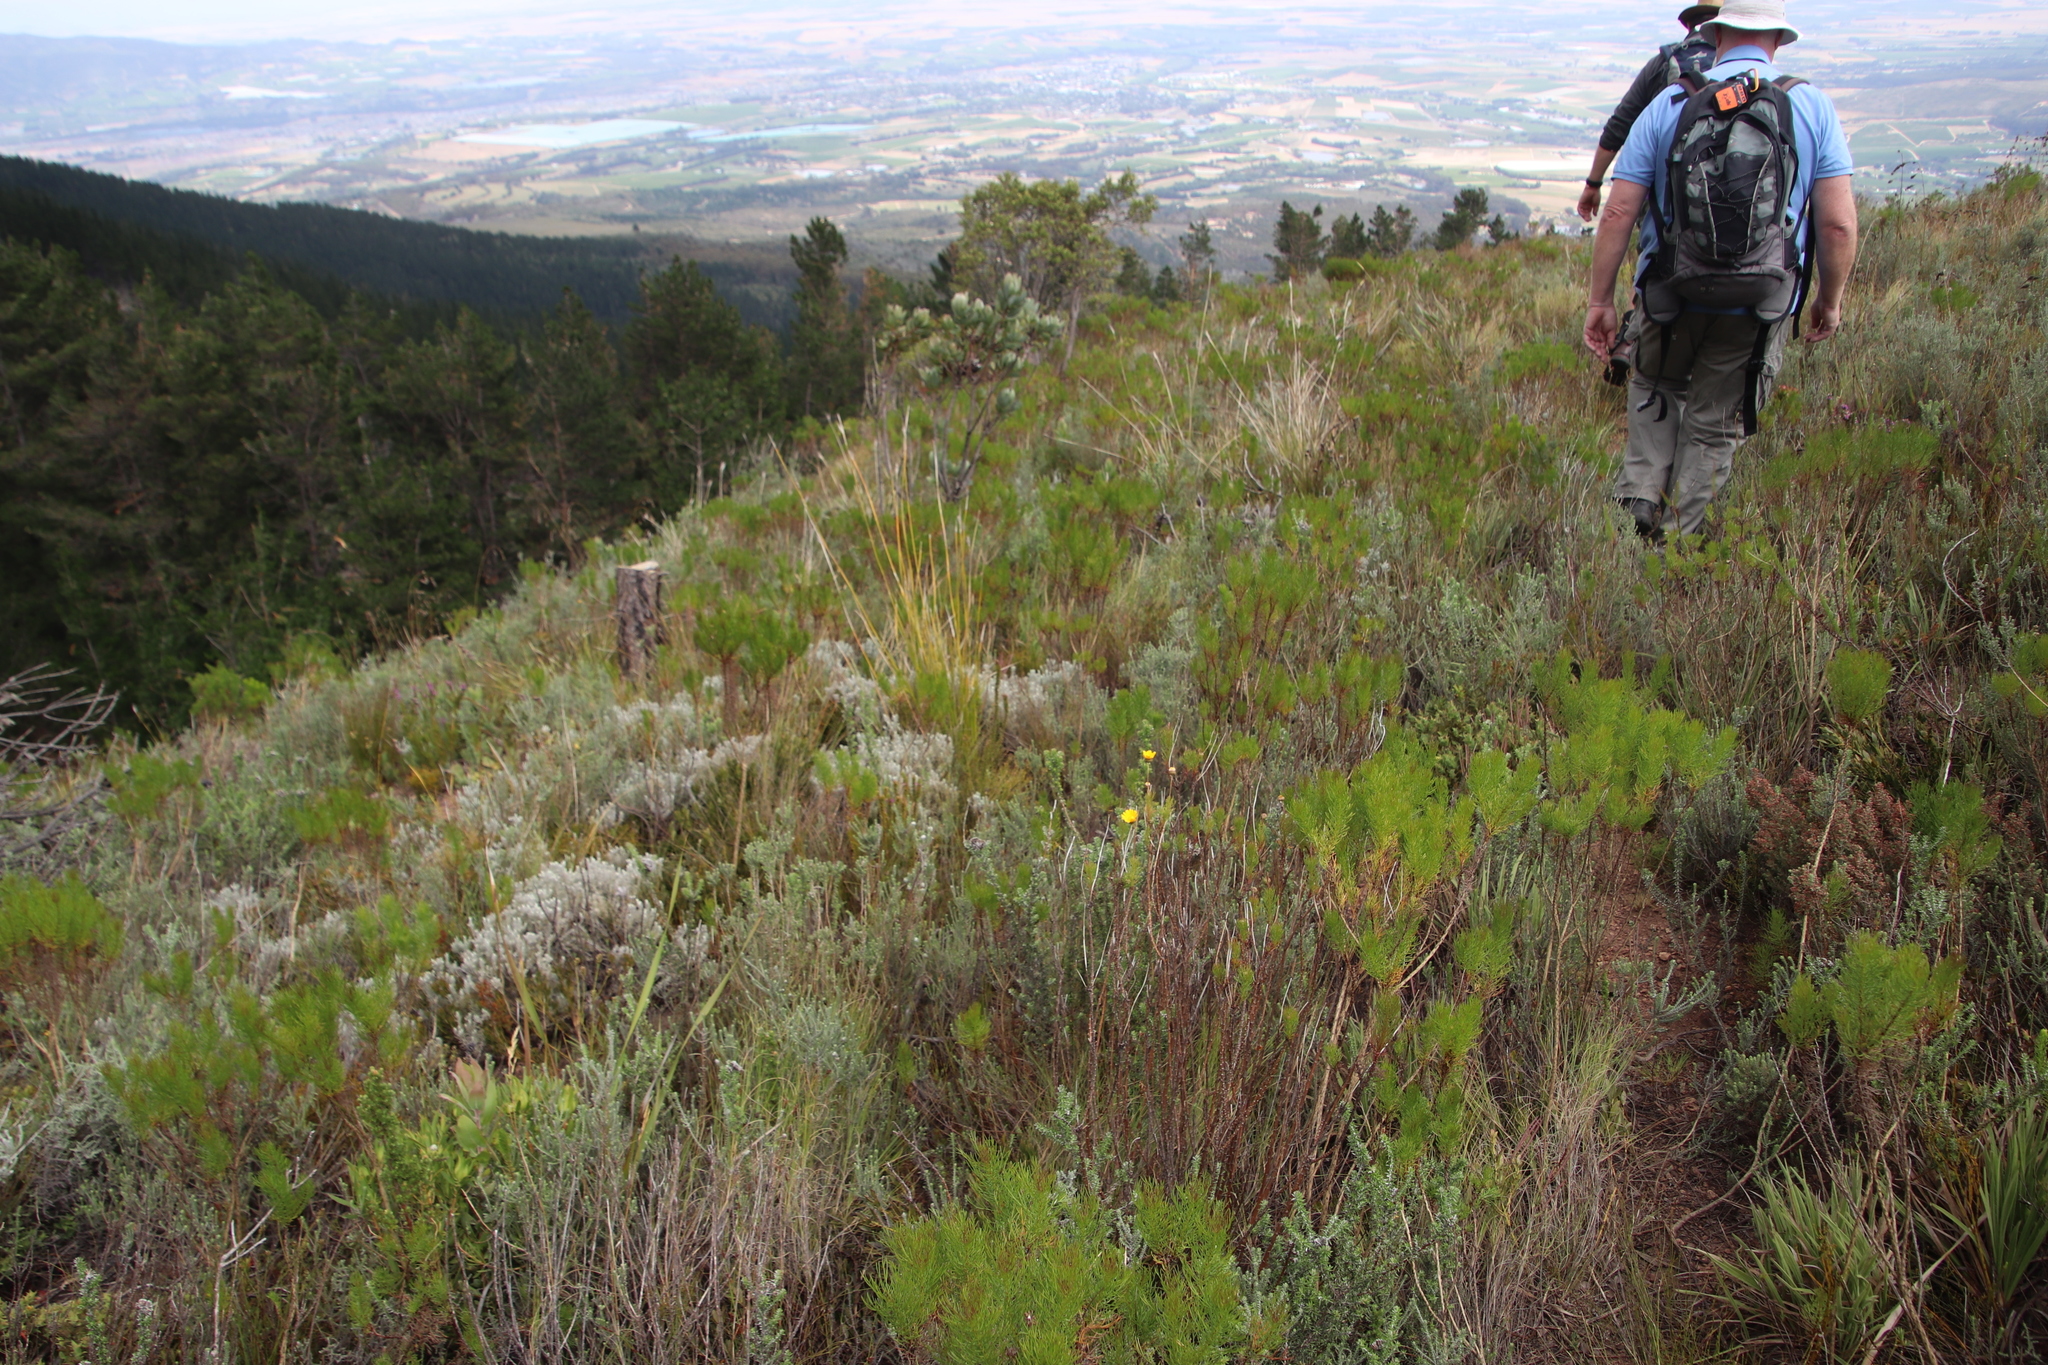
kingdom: Plantae
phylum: Tracheophyta
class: Magnoliopsida
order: Asterales
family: Asteraceae
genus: Euryops
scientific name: Euryops abrotanifolius
